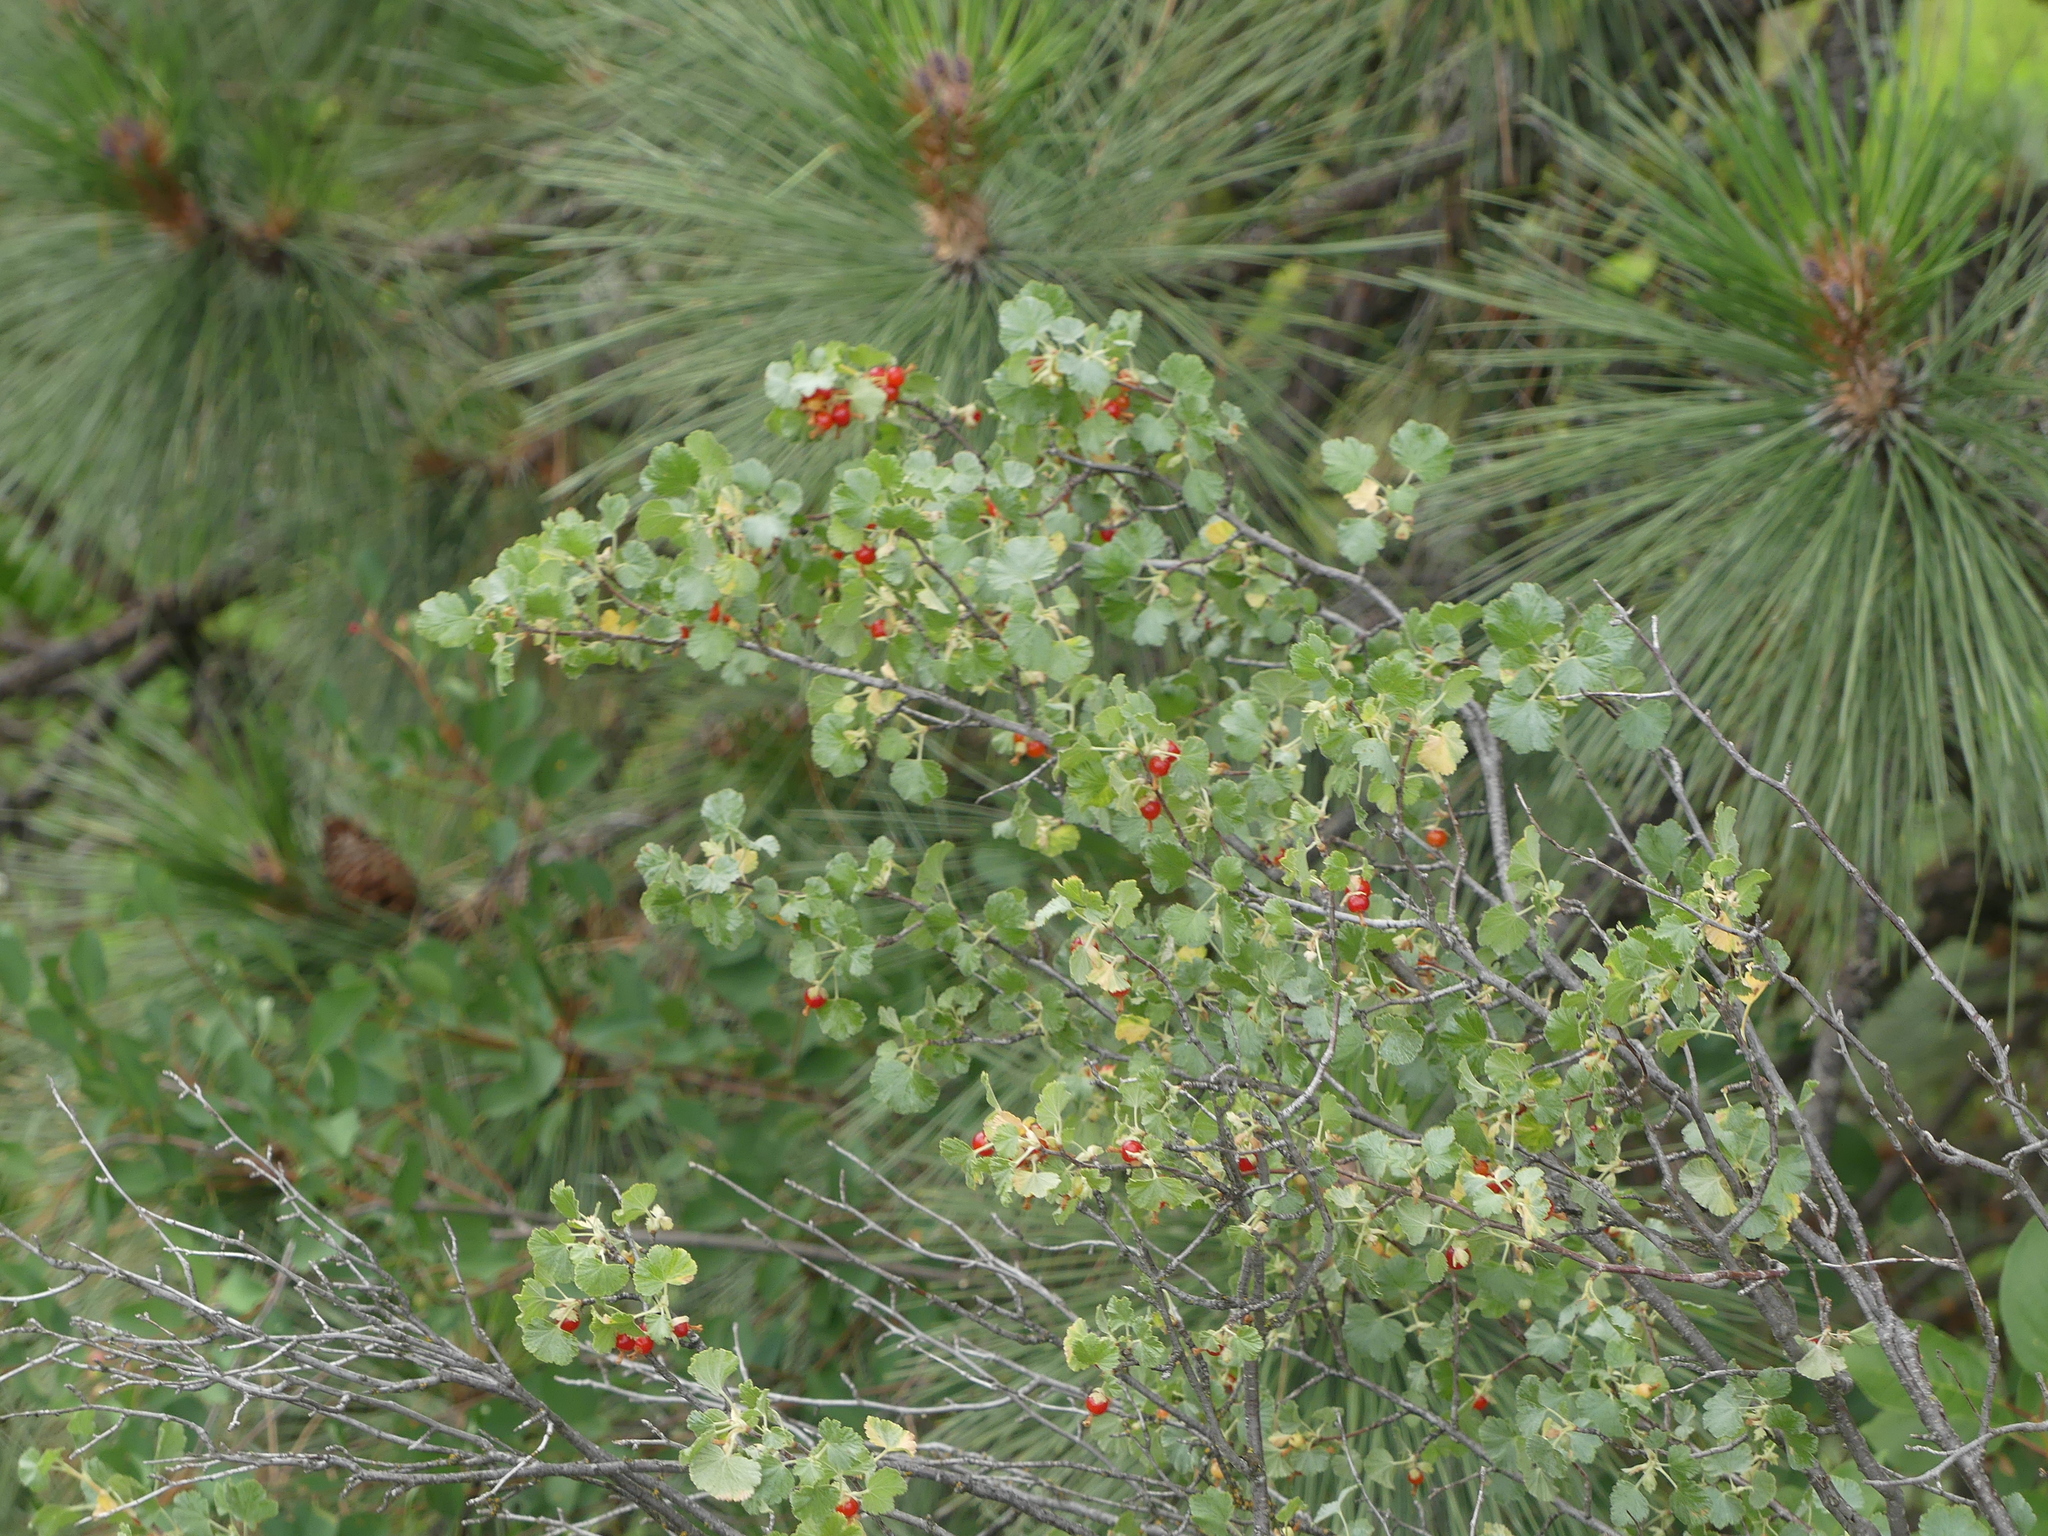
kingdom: Plantae
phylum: Tracheophyta
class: Magnoliopsida
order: Saxifragales
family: Grossulariaceae
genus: Ribes
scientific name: Ribes cereum
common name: Wax currant
